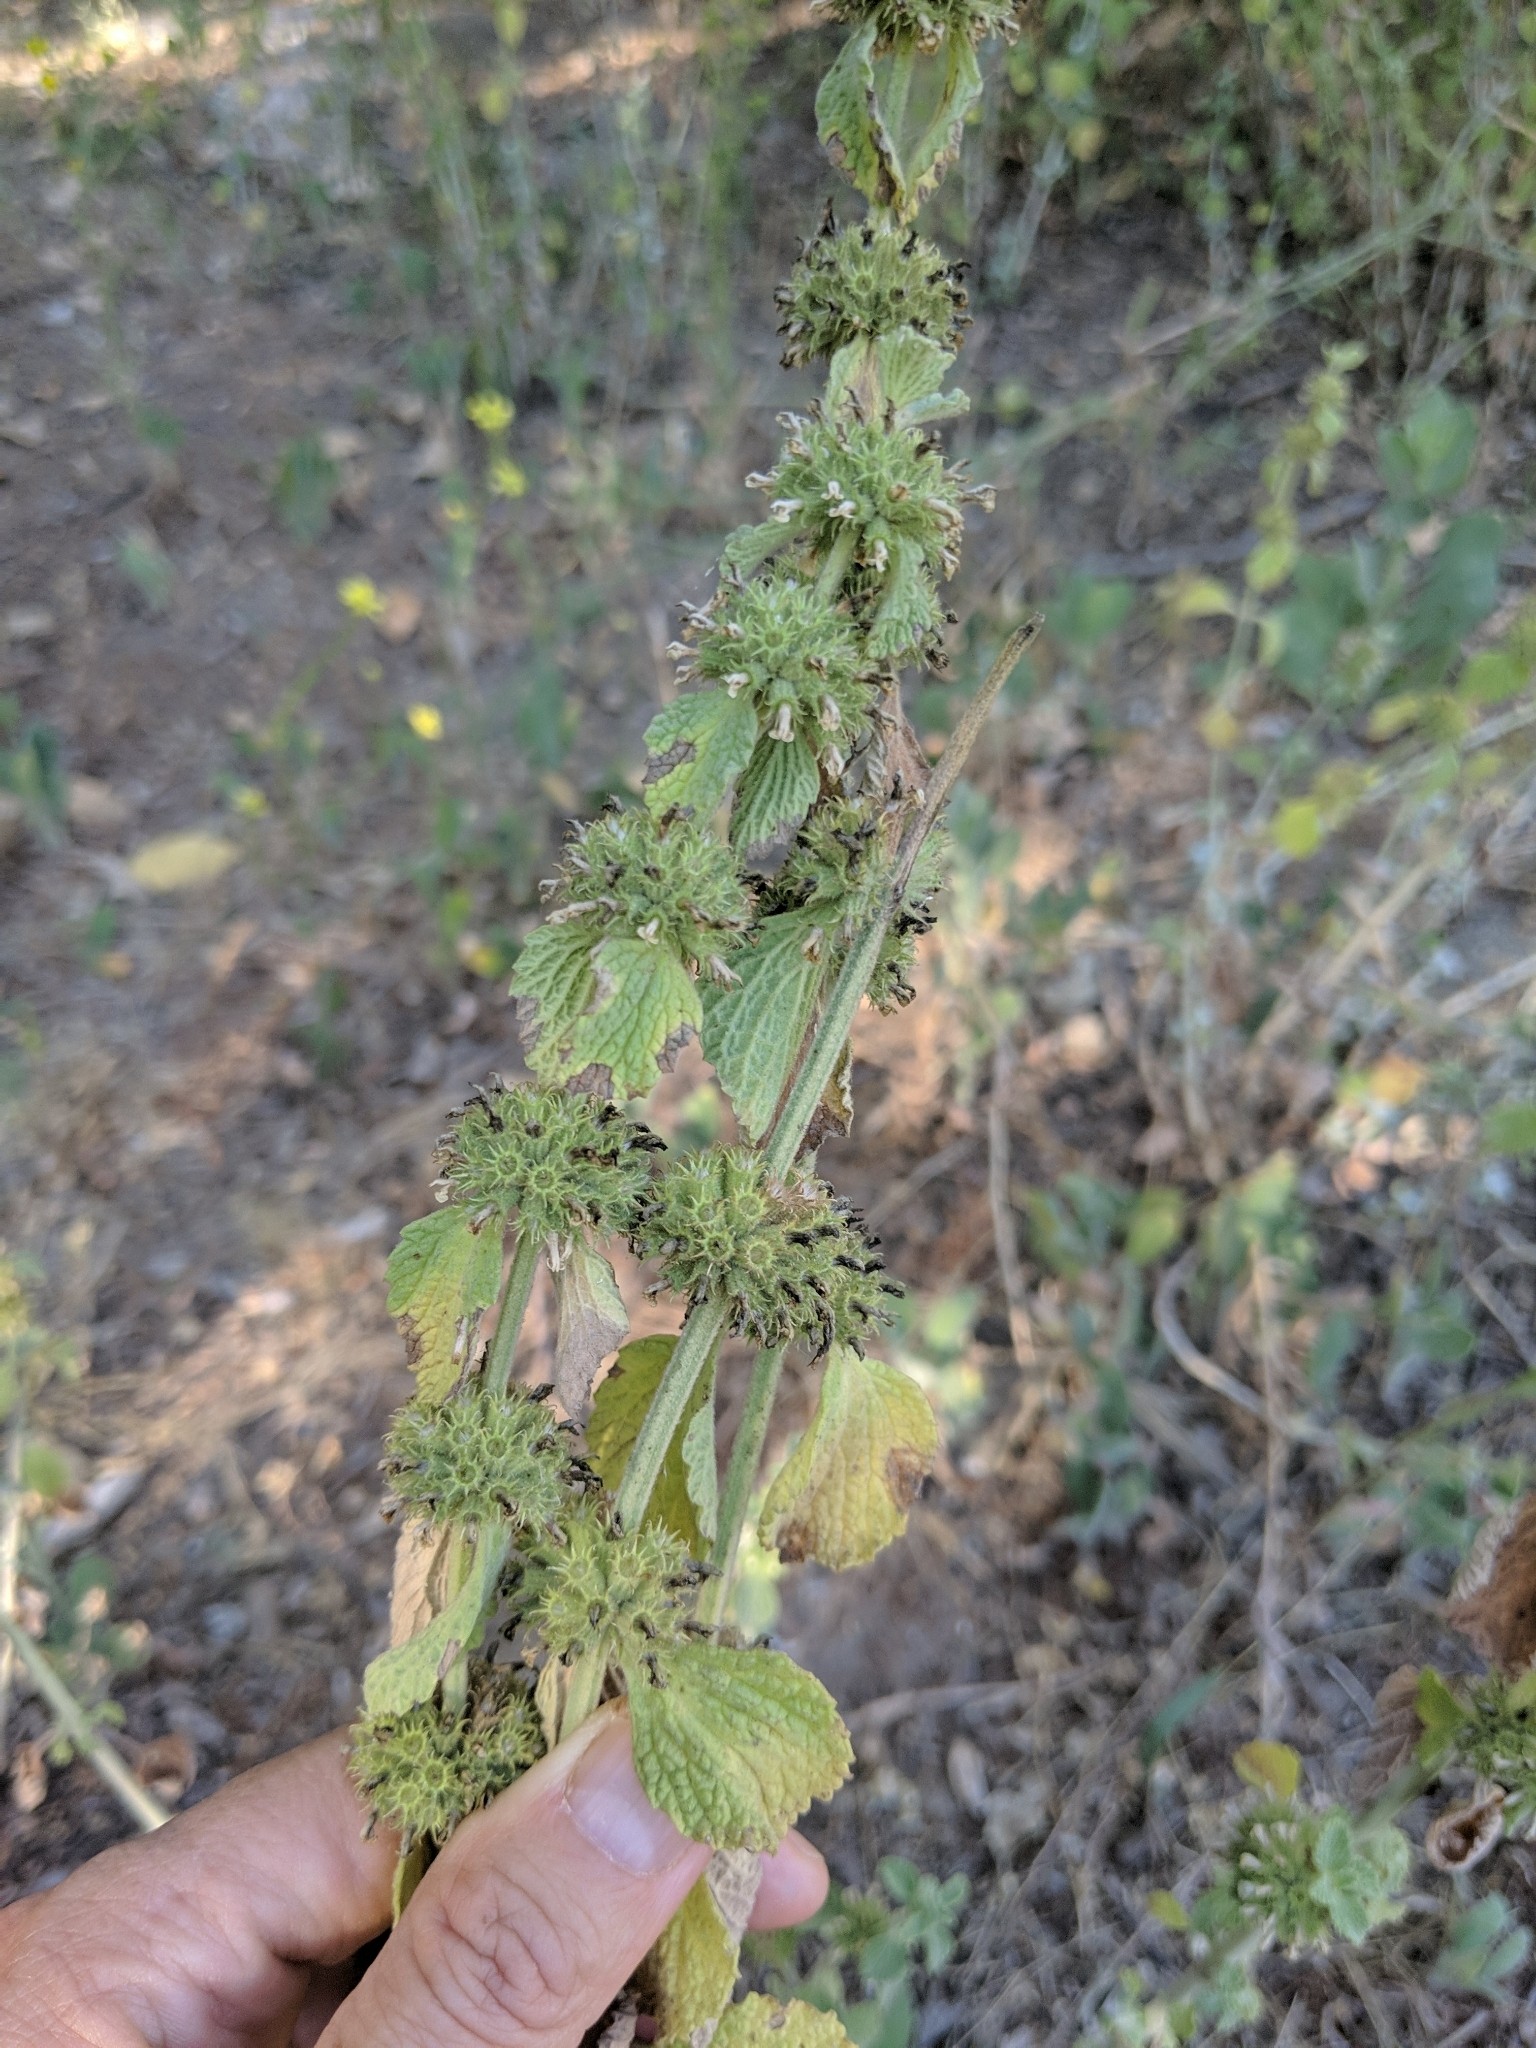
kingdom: Plantae
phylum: Tracheophyta
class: Magnoliopsida
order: Lamiales
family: Lamiaceae
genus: Marrubium
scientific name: Marrubium vulgare
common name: Horehound
